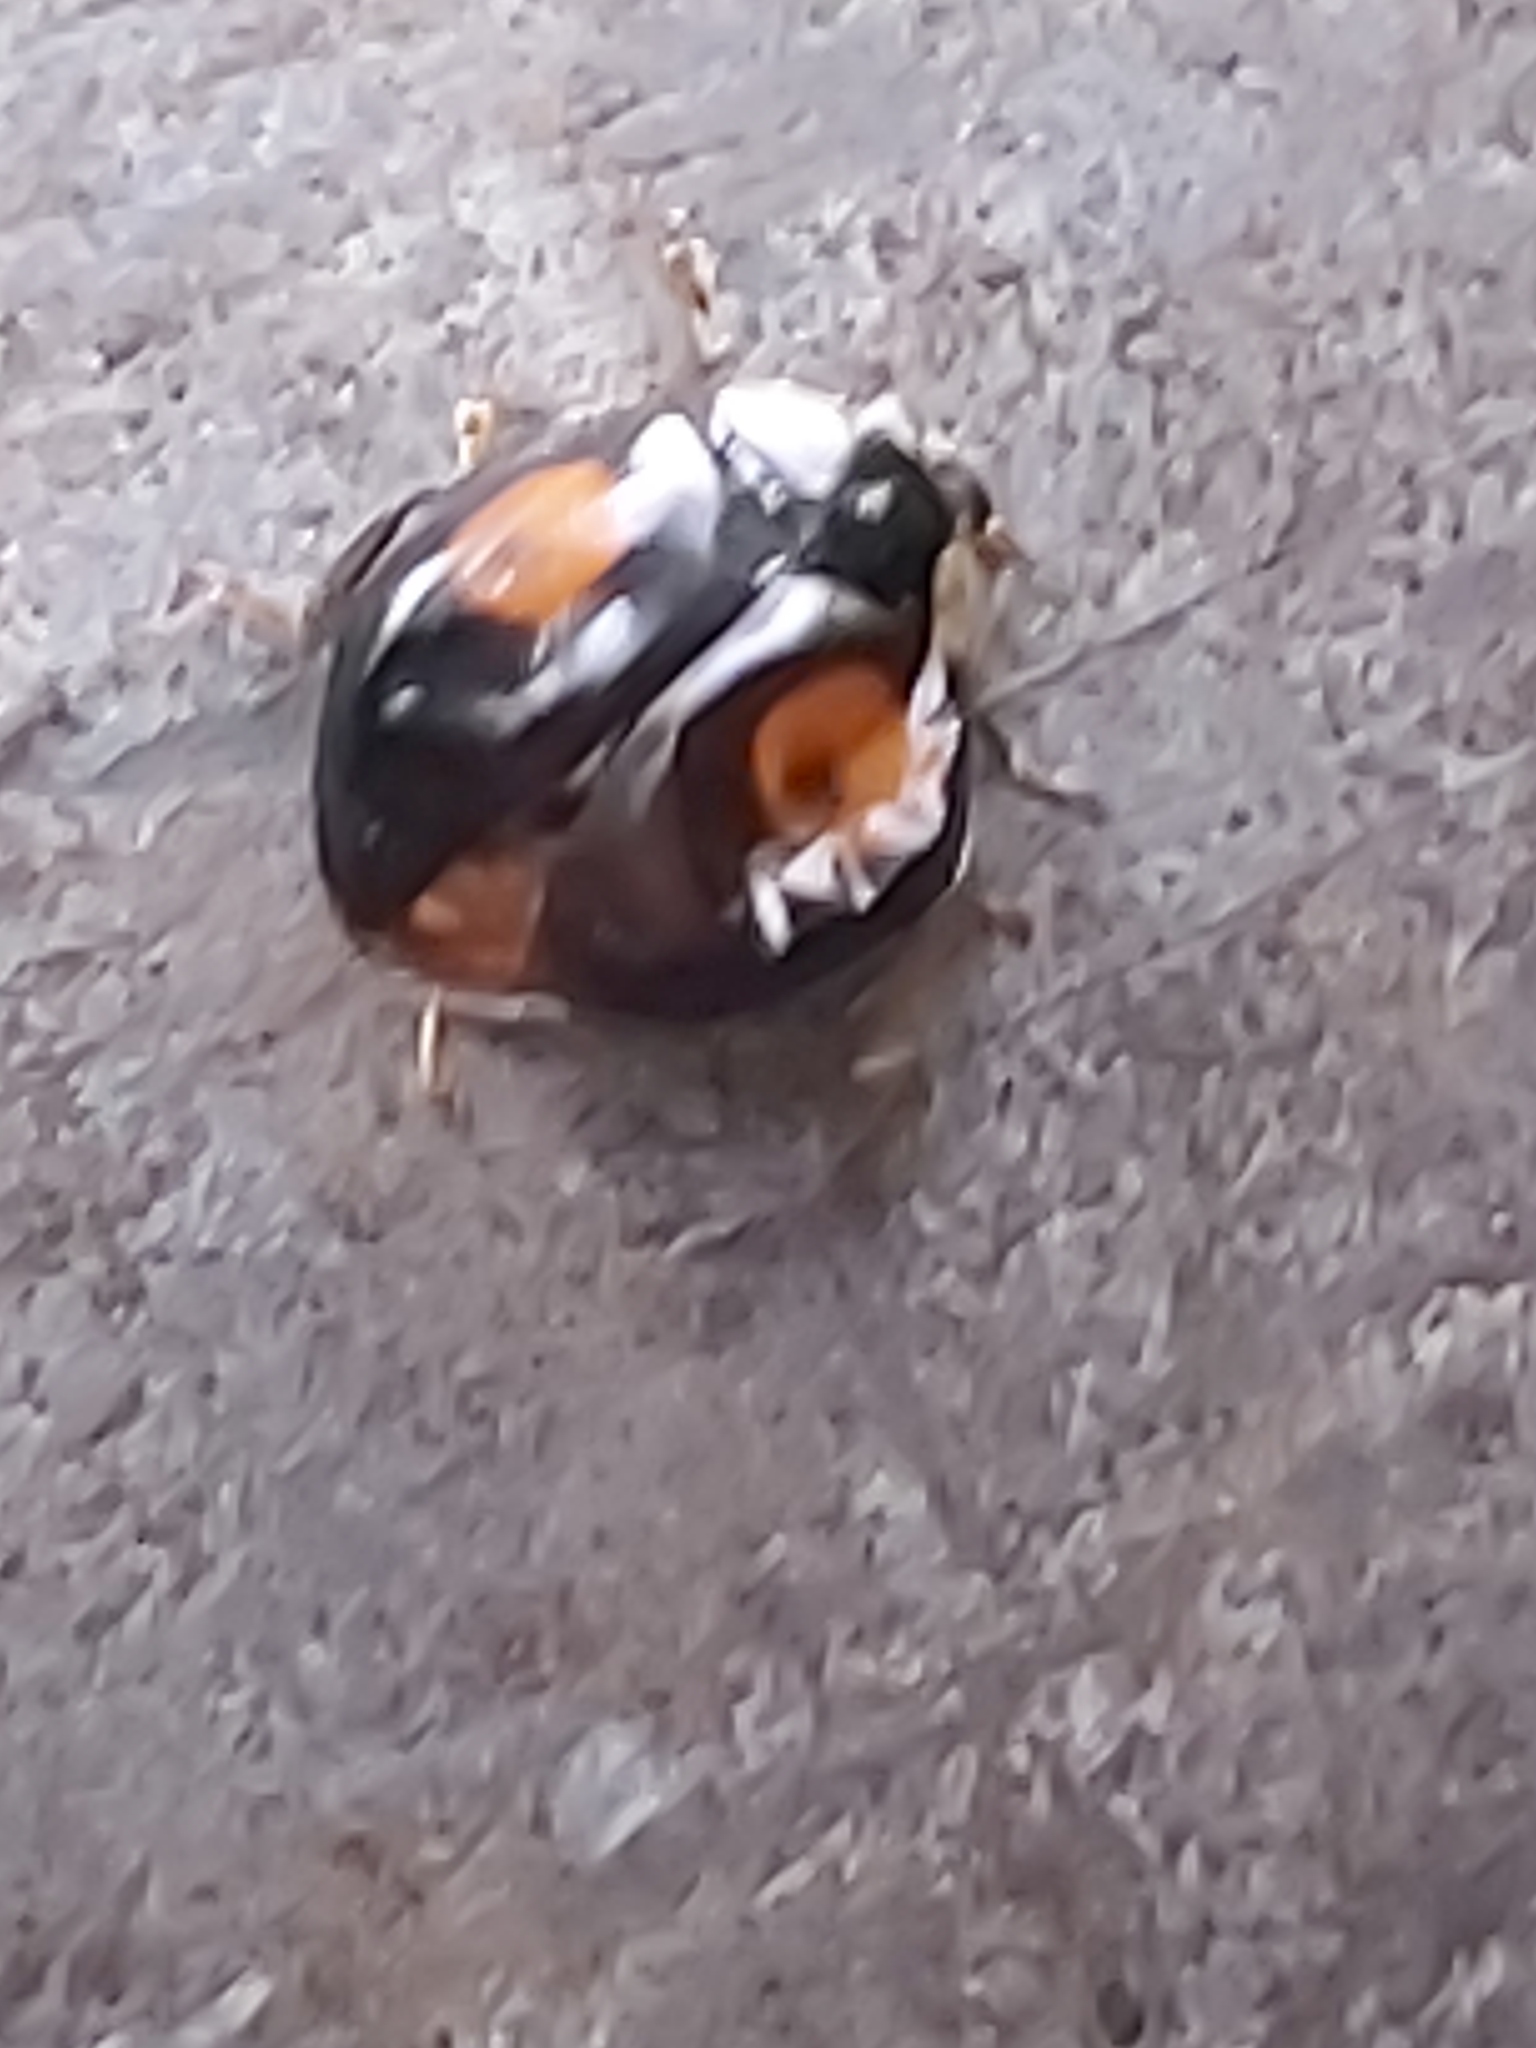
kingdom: Animalia
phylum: Arthropoda
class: Insecta
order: Coleoptera
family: Coccinellidae
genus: Harmonia
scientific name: Harmonia axyridis
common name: Harlequin ladybird
